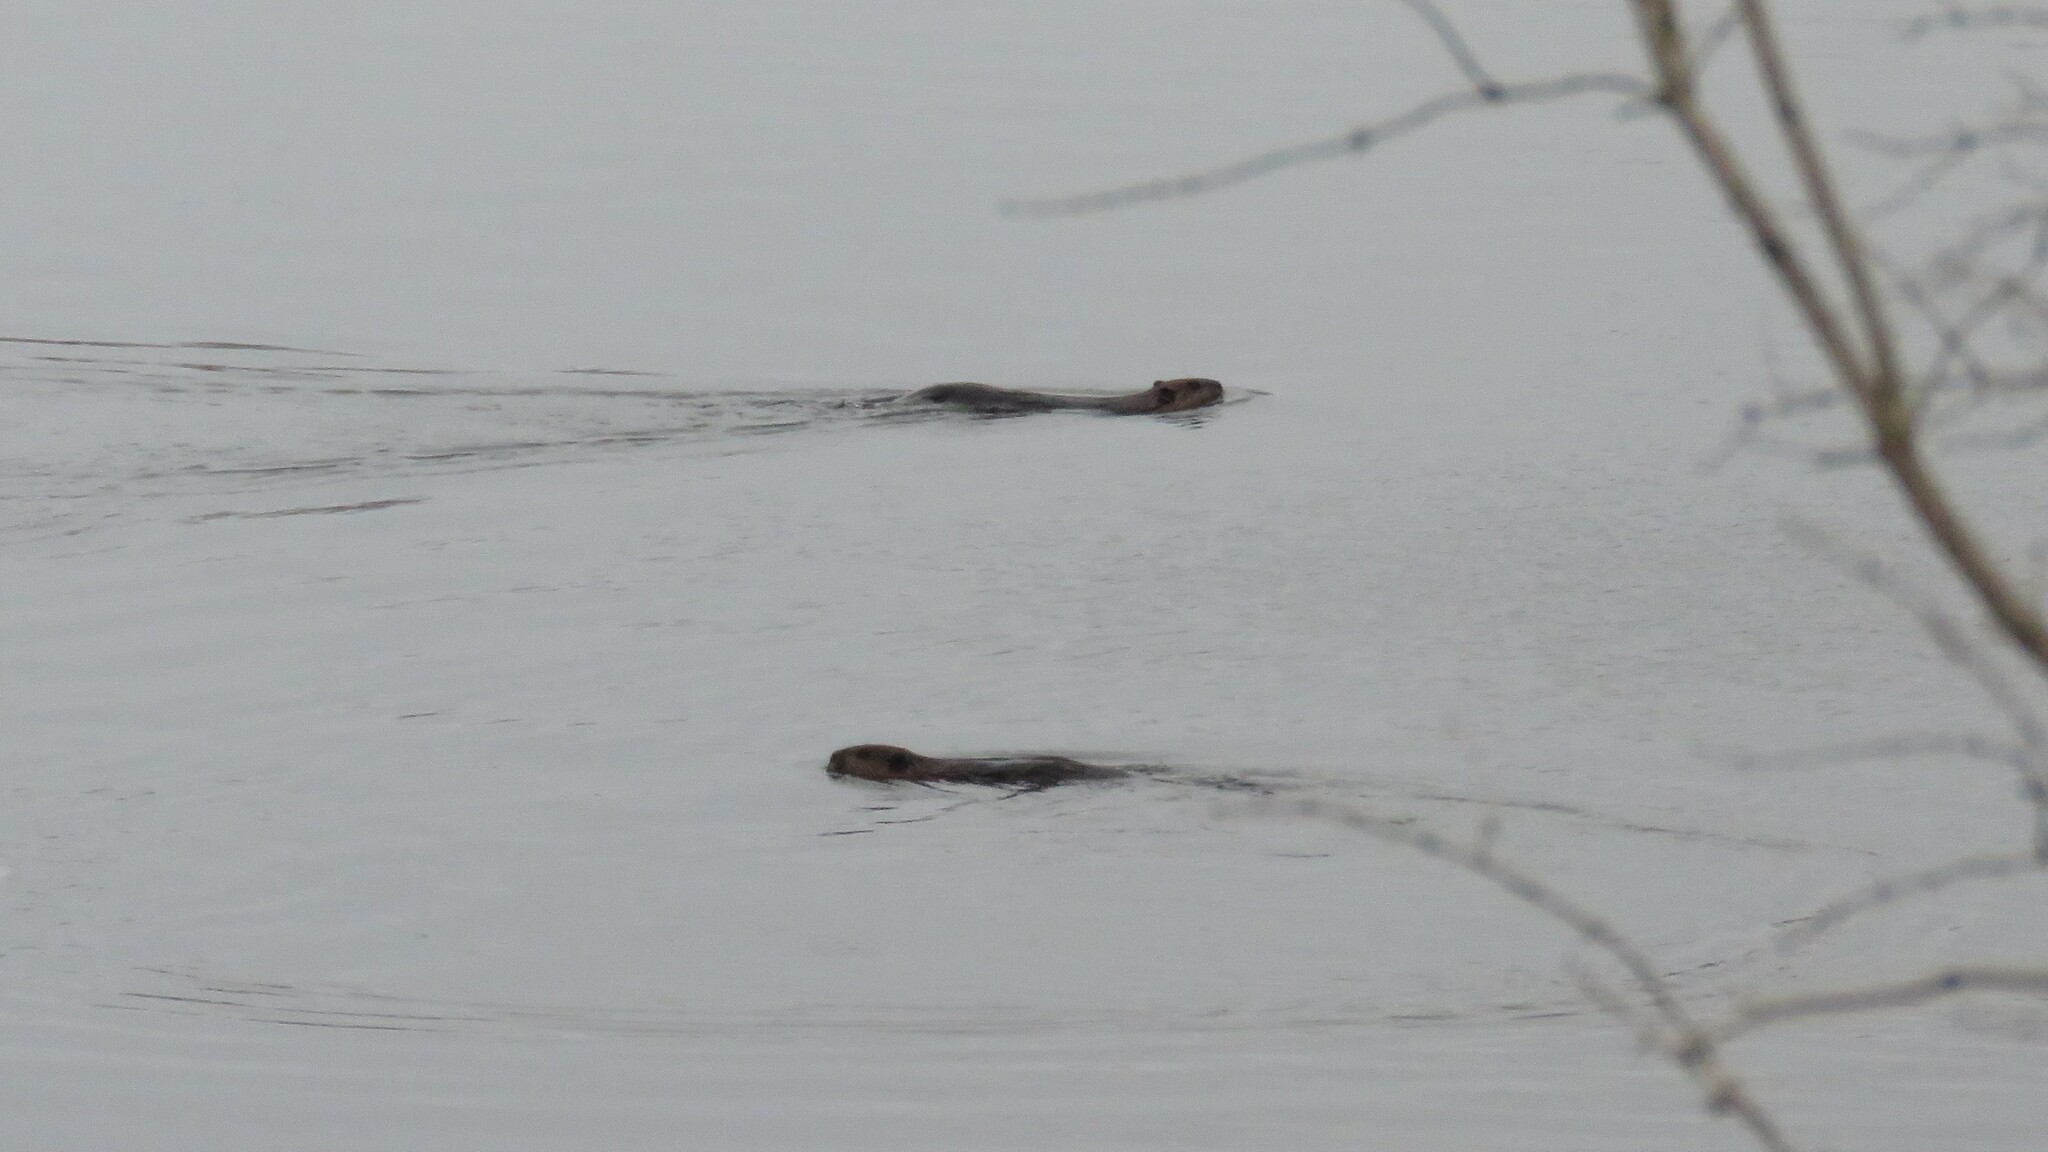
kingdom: Animalia
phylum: Chordata
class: Mammalia
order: Rodentia
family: Castoridae
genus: Castor
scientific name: Castor canadensis
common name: American beaver
